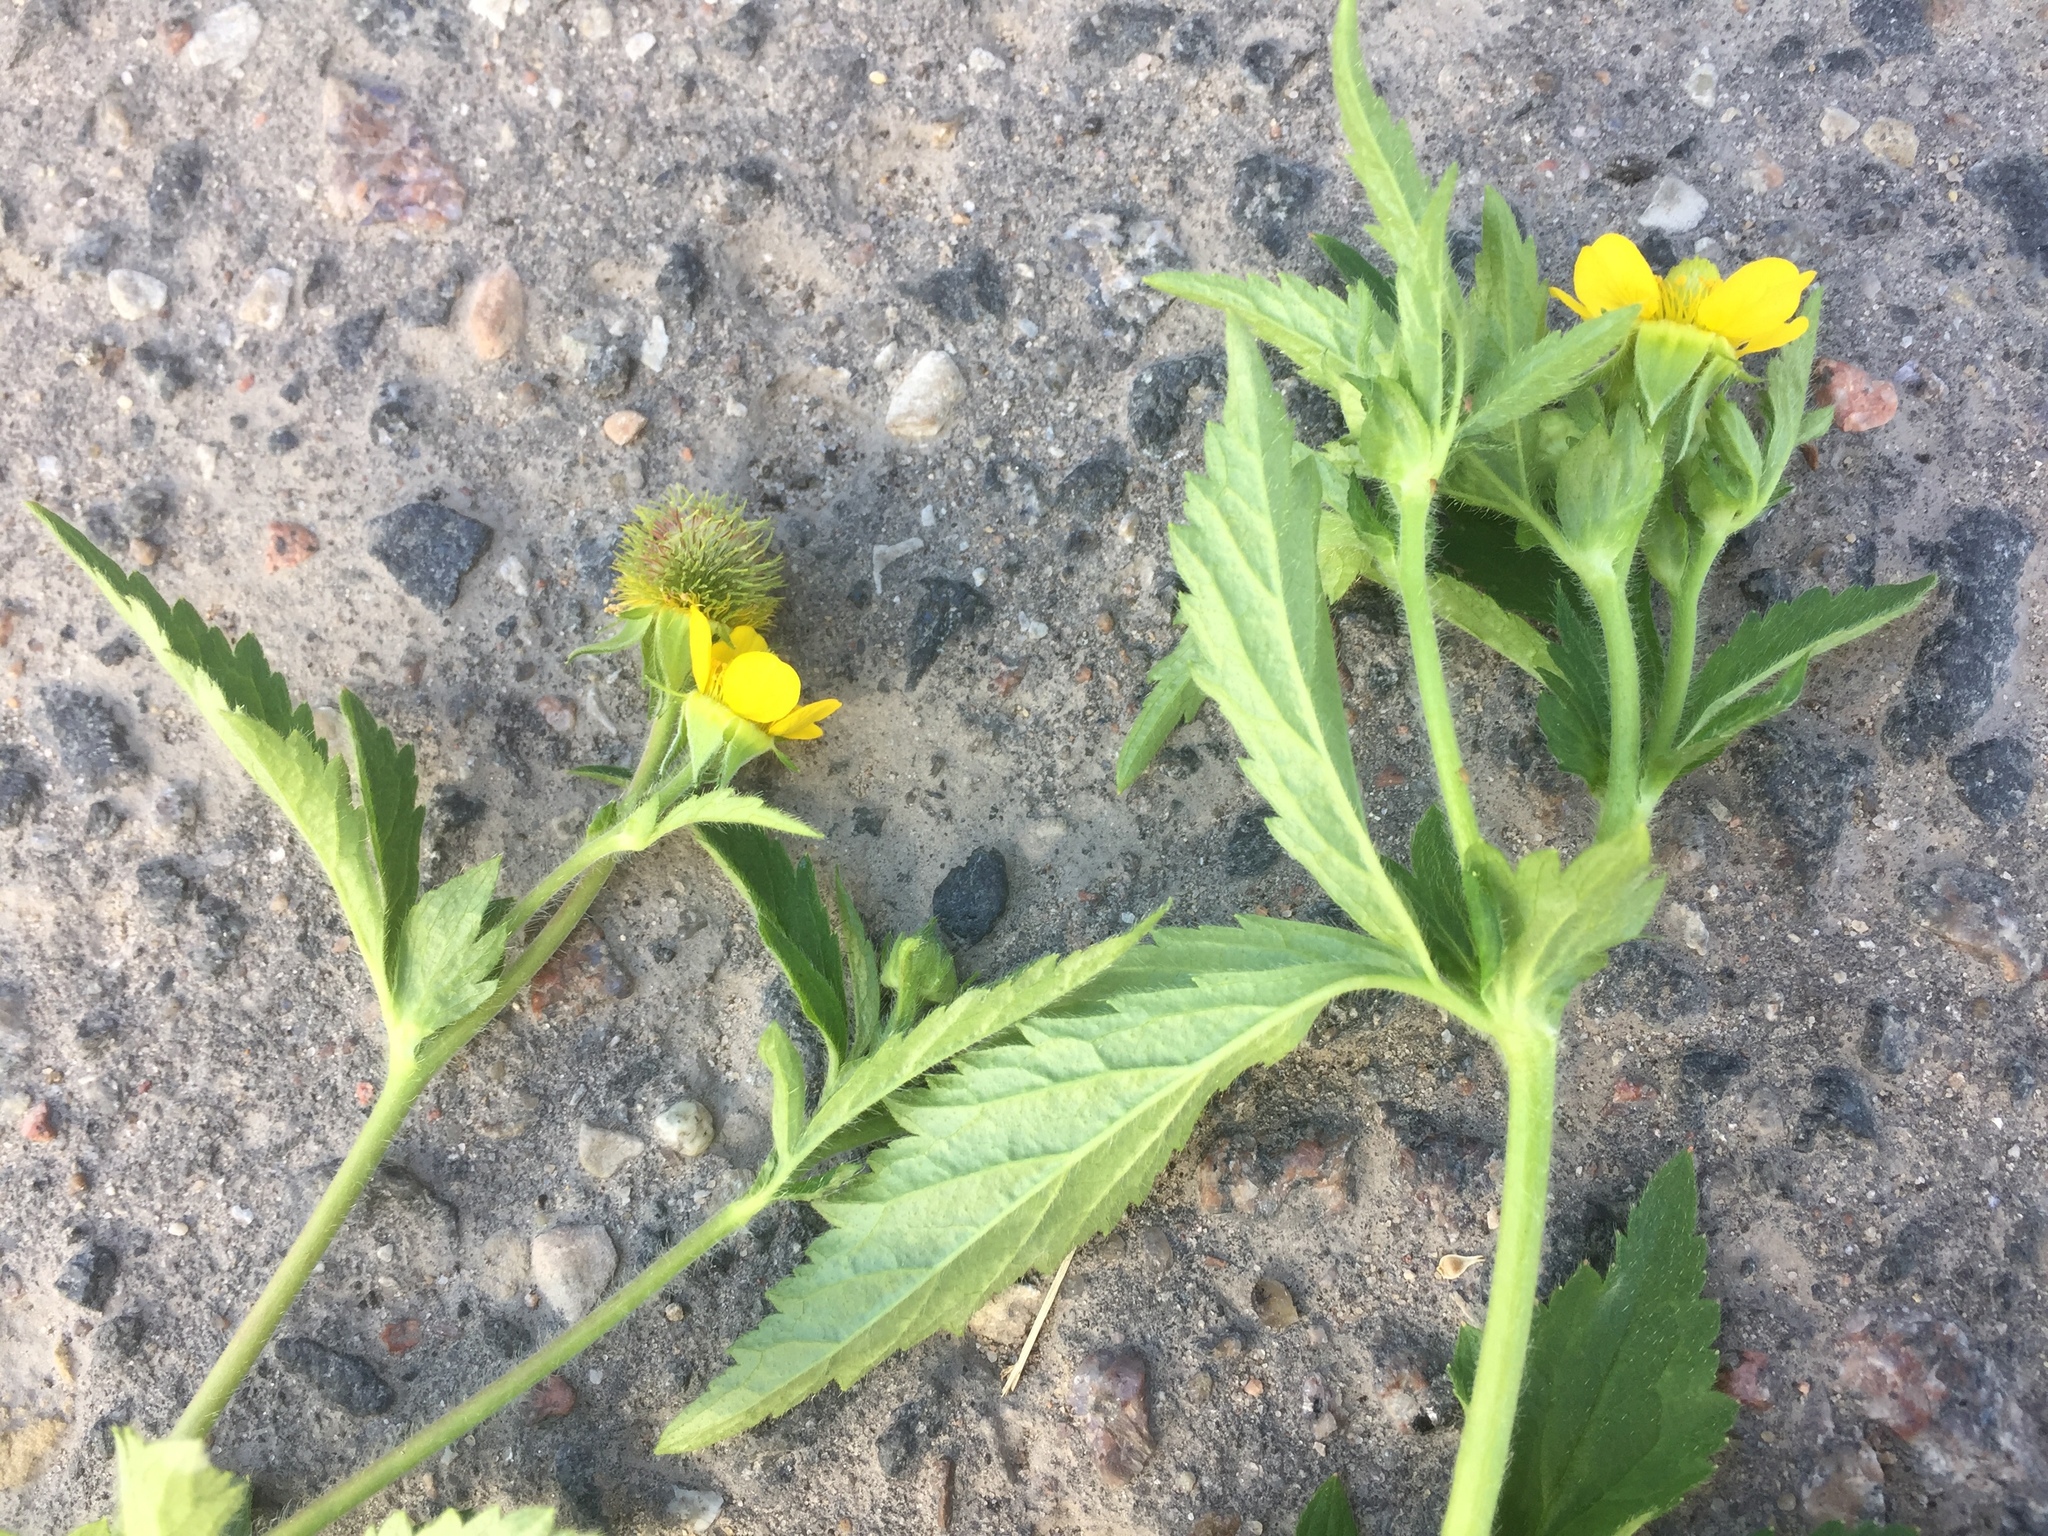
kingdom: Plantae
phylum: Tracheophyta
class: Magnoliopsida
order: Rosales
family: Rosaceae
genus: Geum
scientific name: Geum aleppicum
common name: Yellow avens
